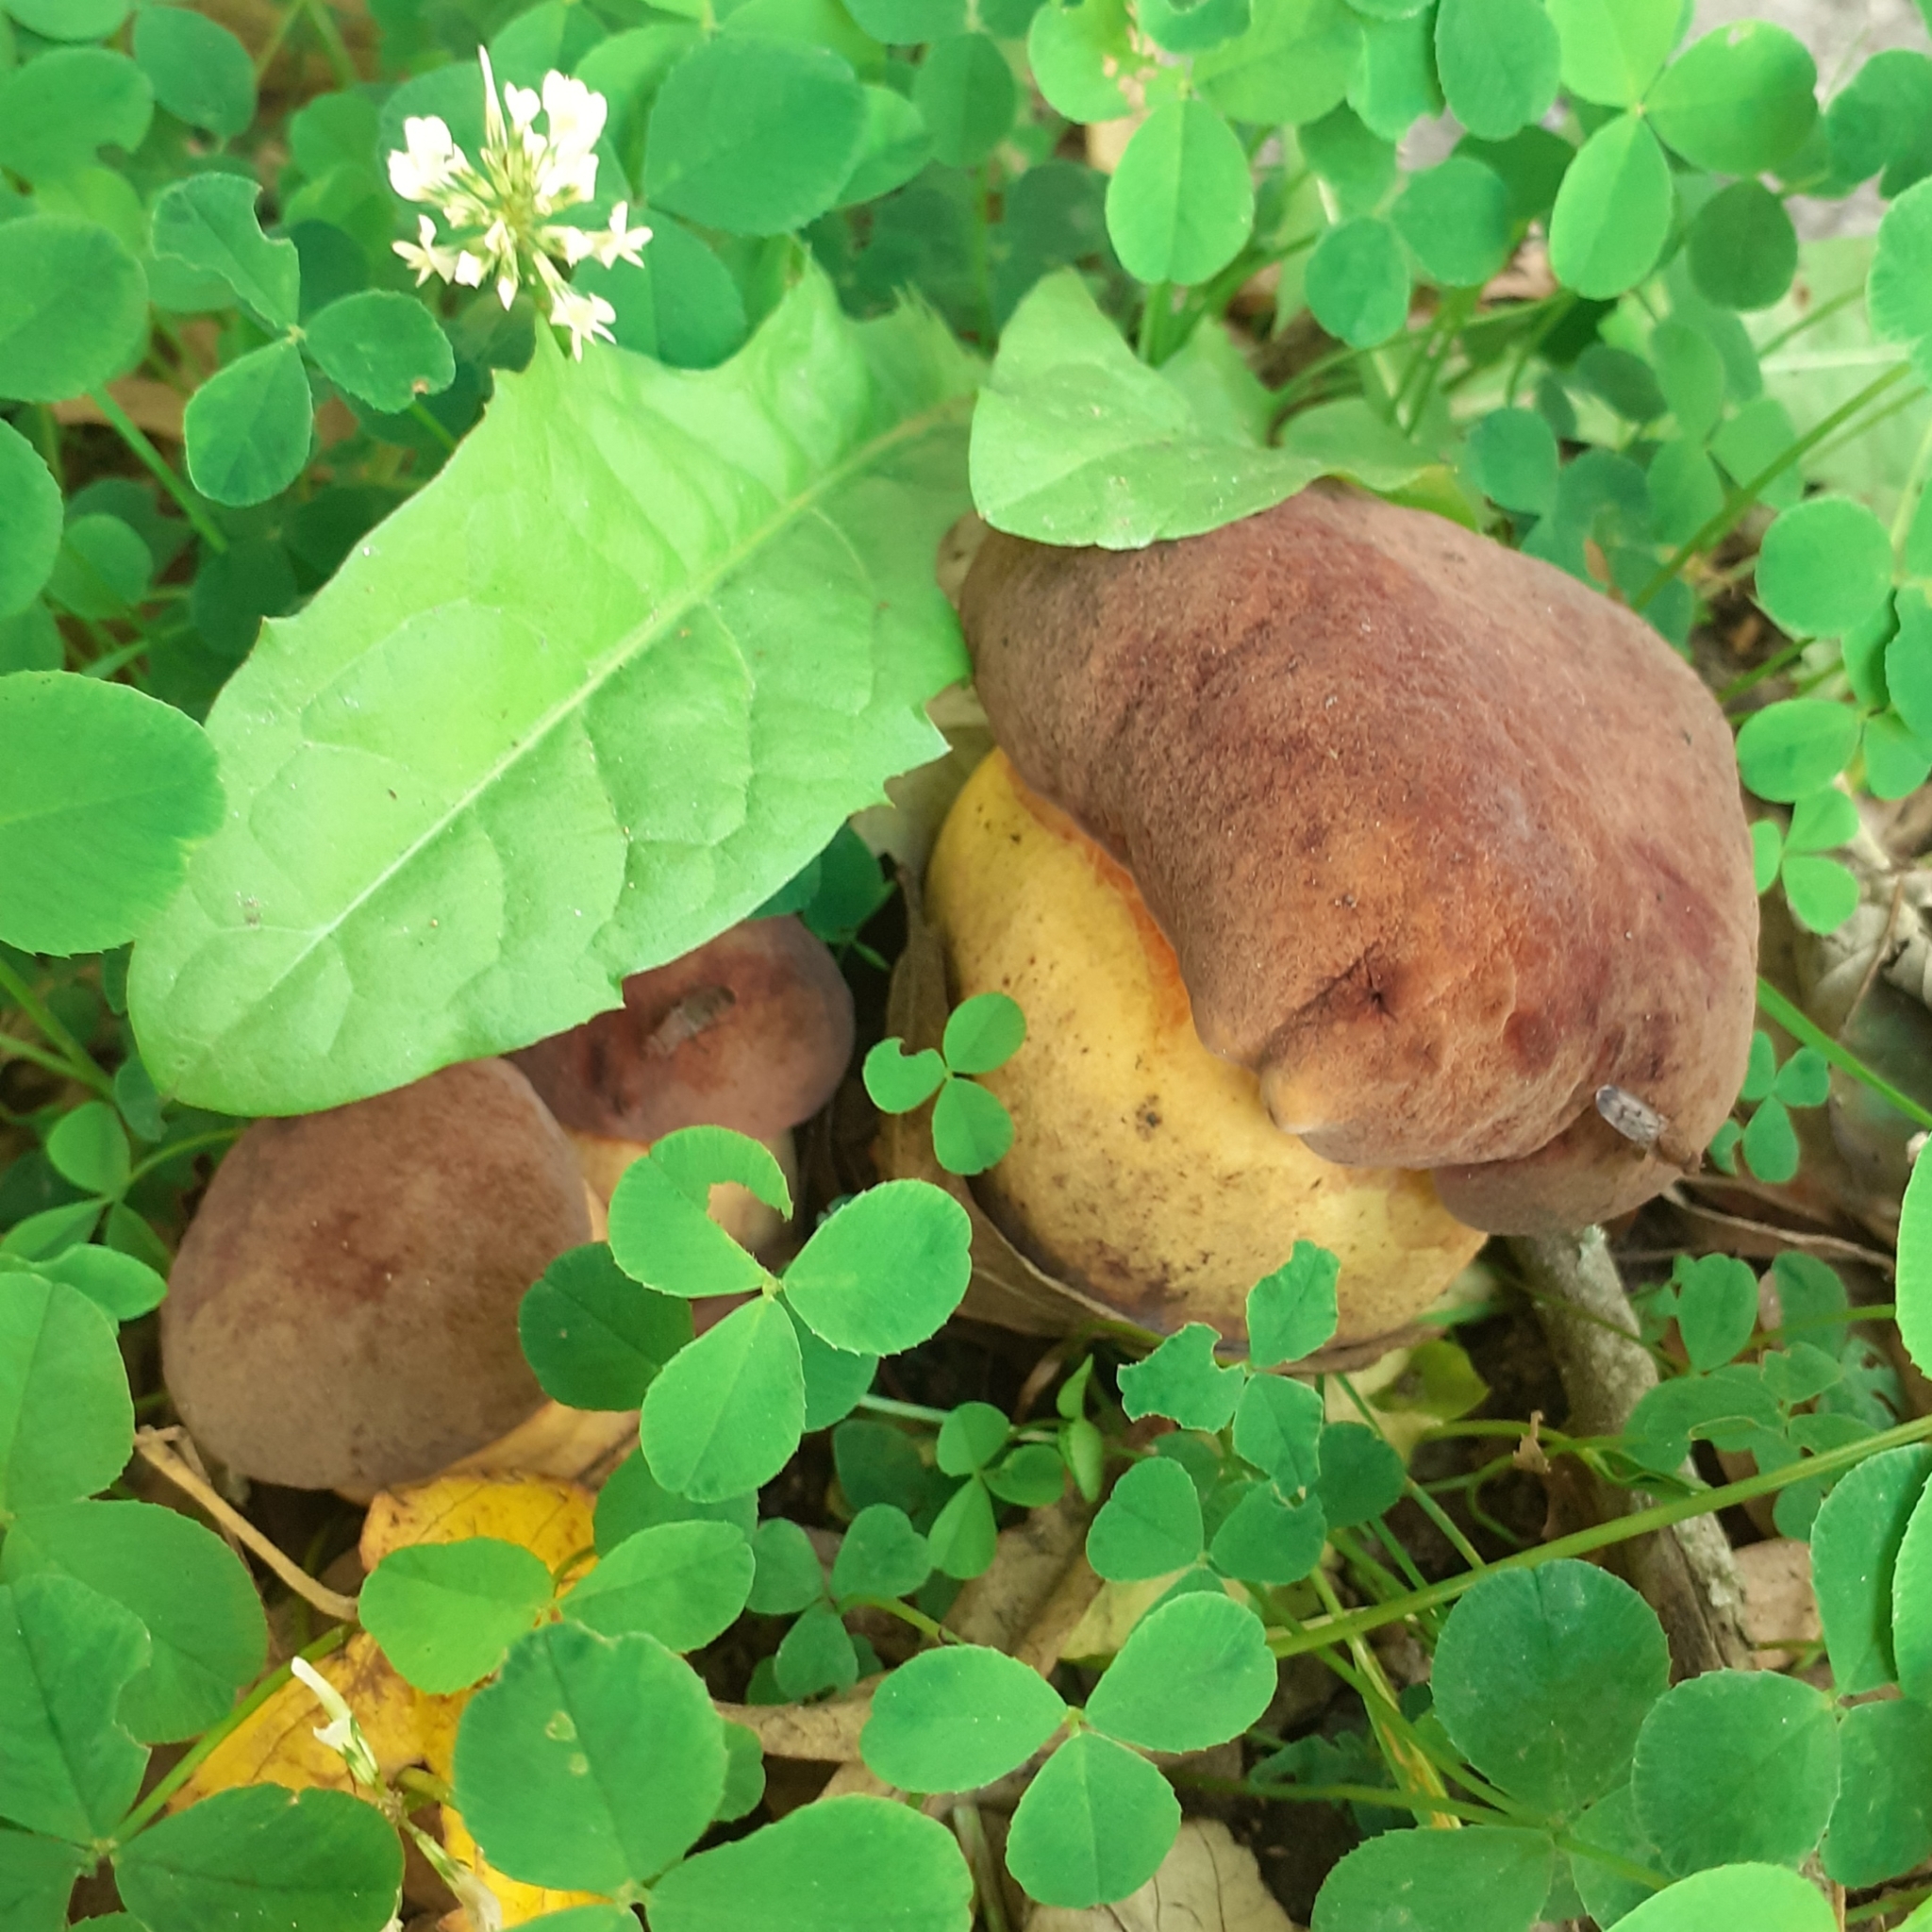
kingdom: Fungi
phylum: Basidiomycota
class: Agaricomycetes
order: Boletales
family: Boletaceae
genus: Suillellus
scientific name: Suillellus queletii
